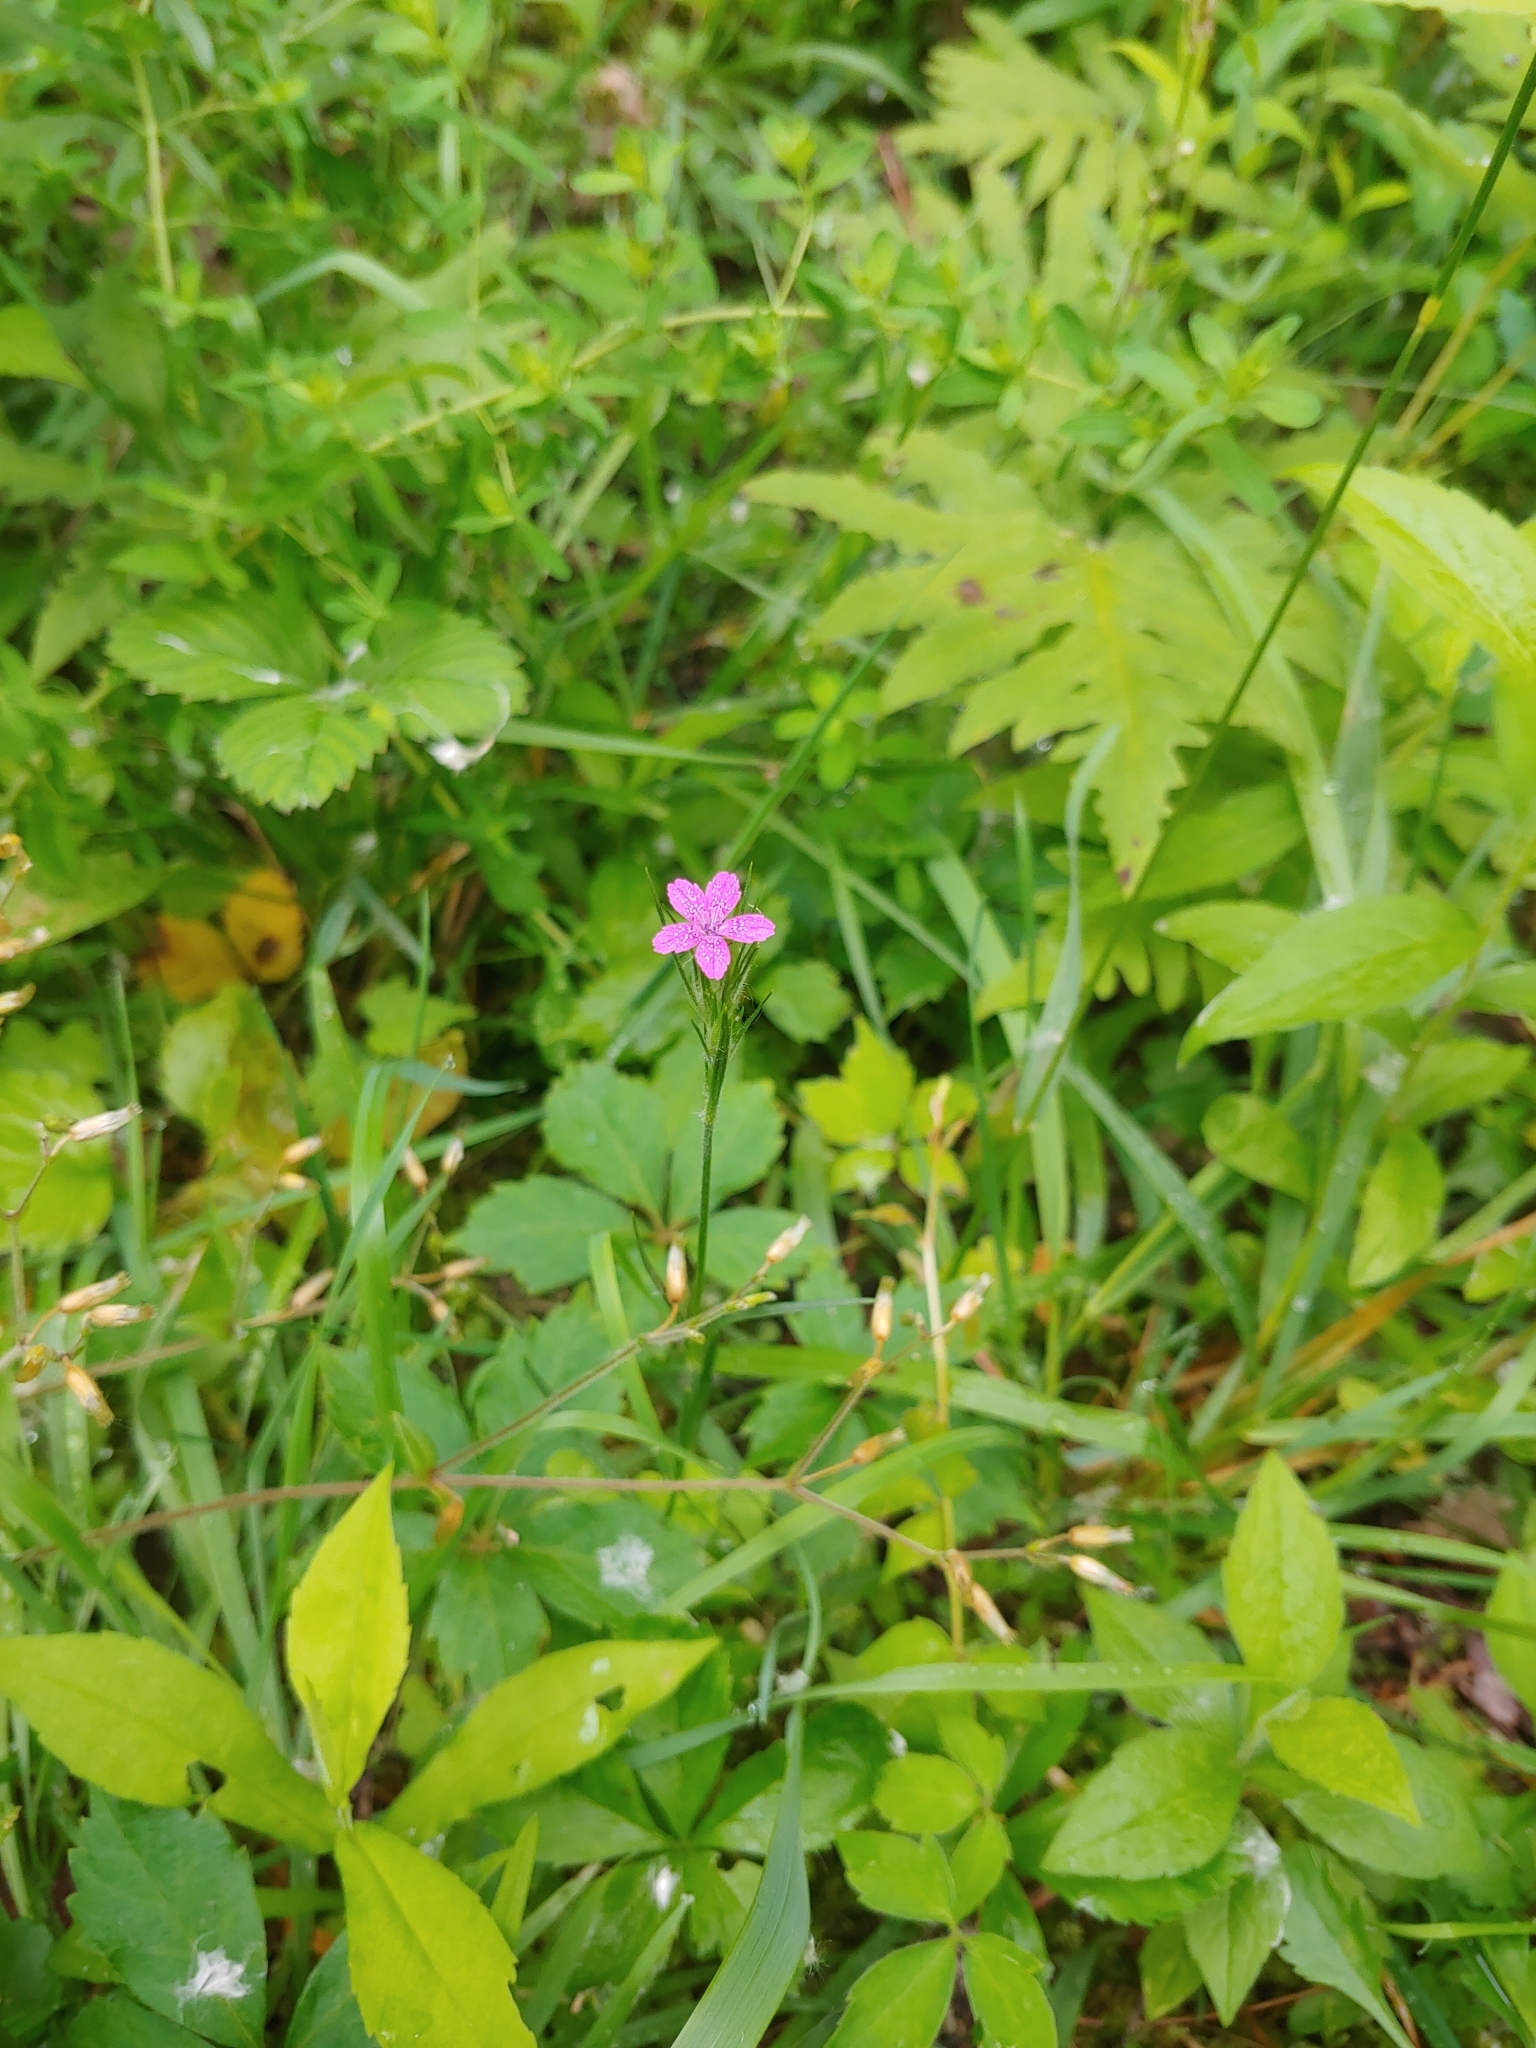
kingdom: Plantae
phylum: Tracheophyta
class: Magnoliopsida
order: Caryophyllales
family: Caryophyllaceae
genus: Dianthus
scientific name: Dianthus armeria
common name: Deptford pink
